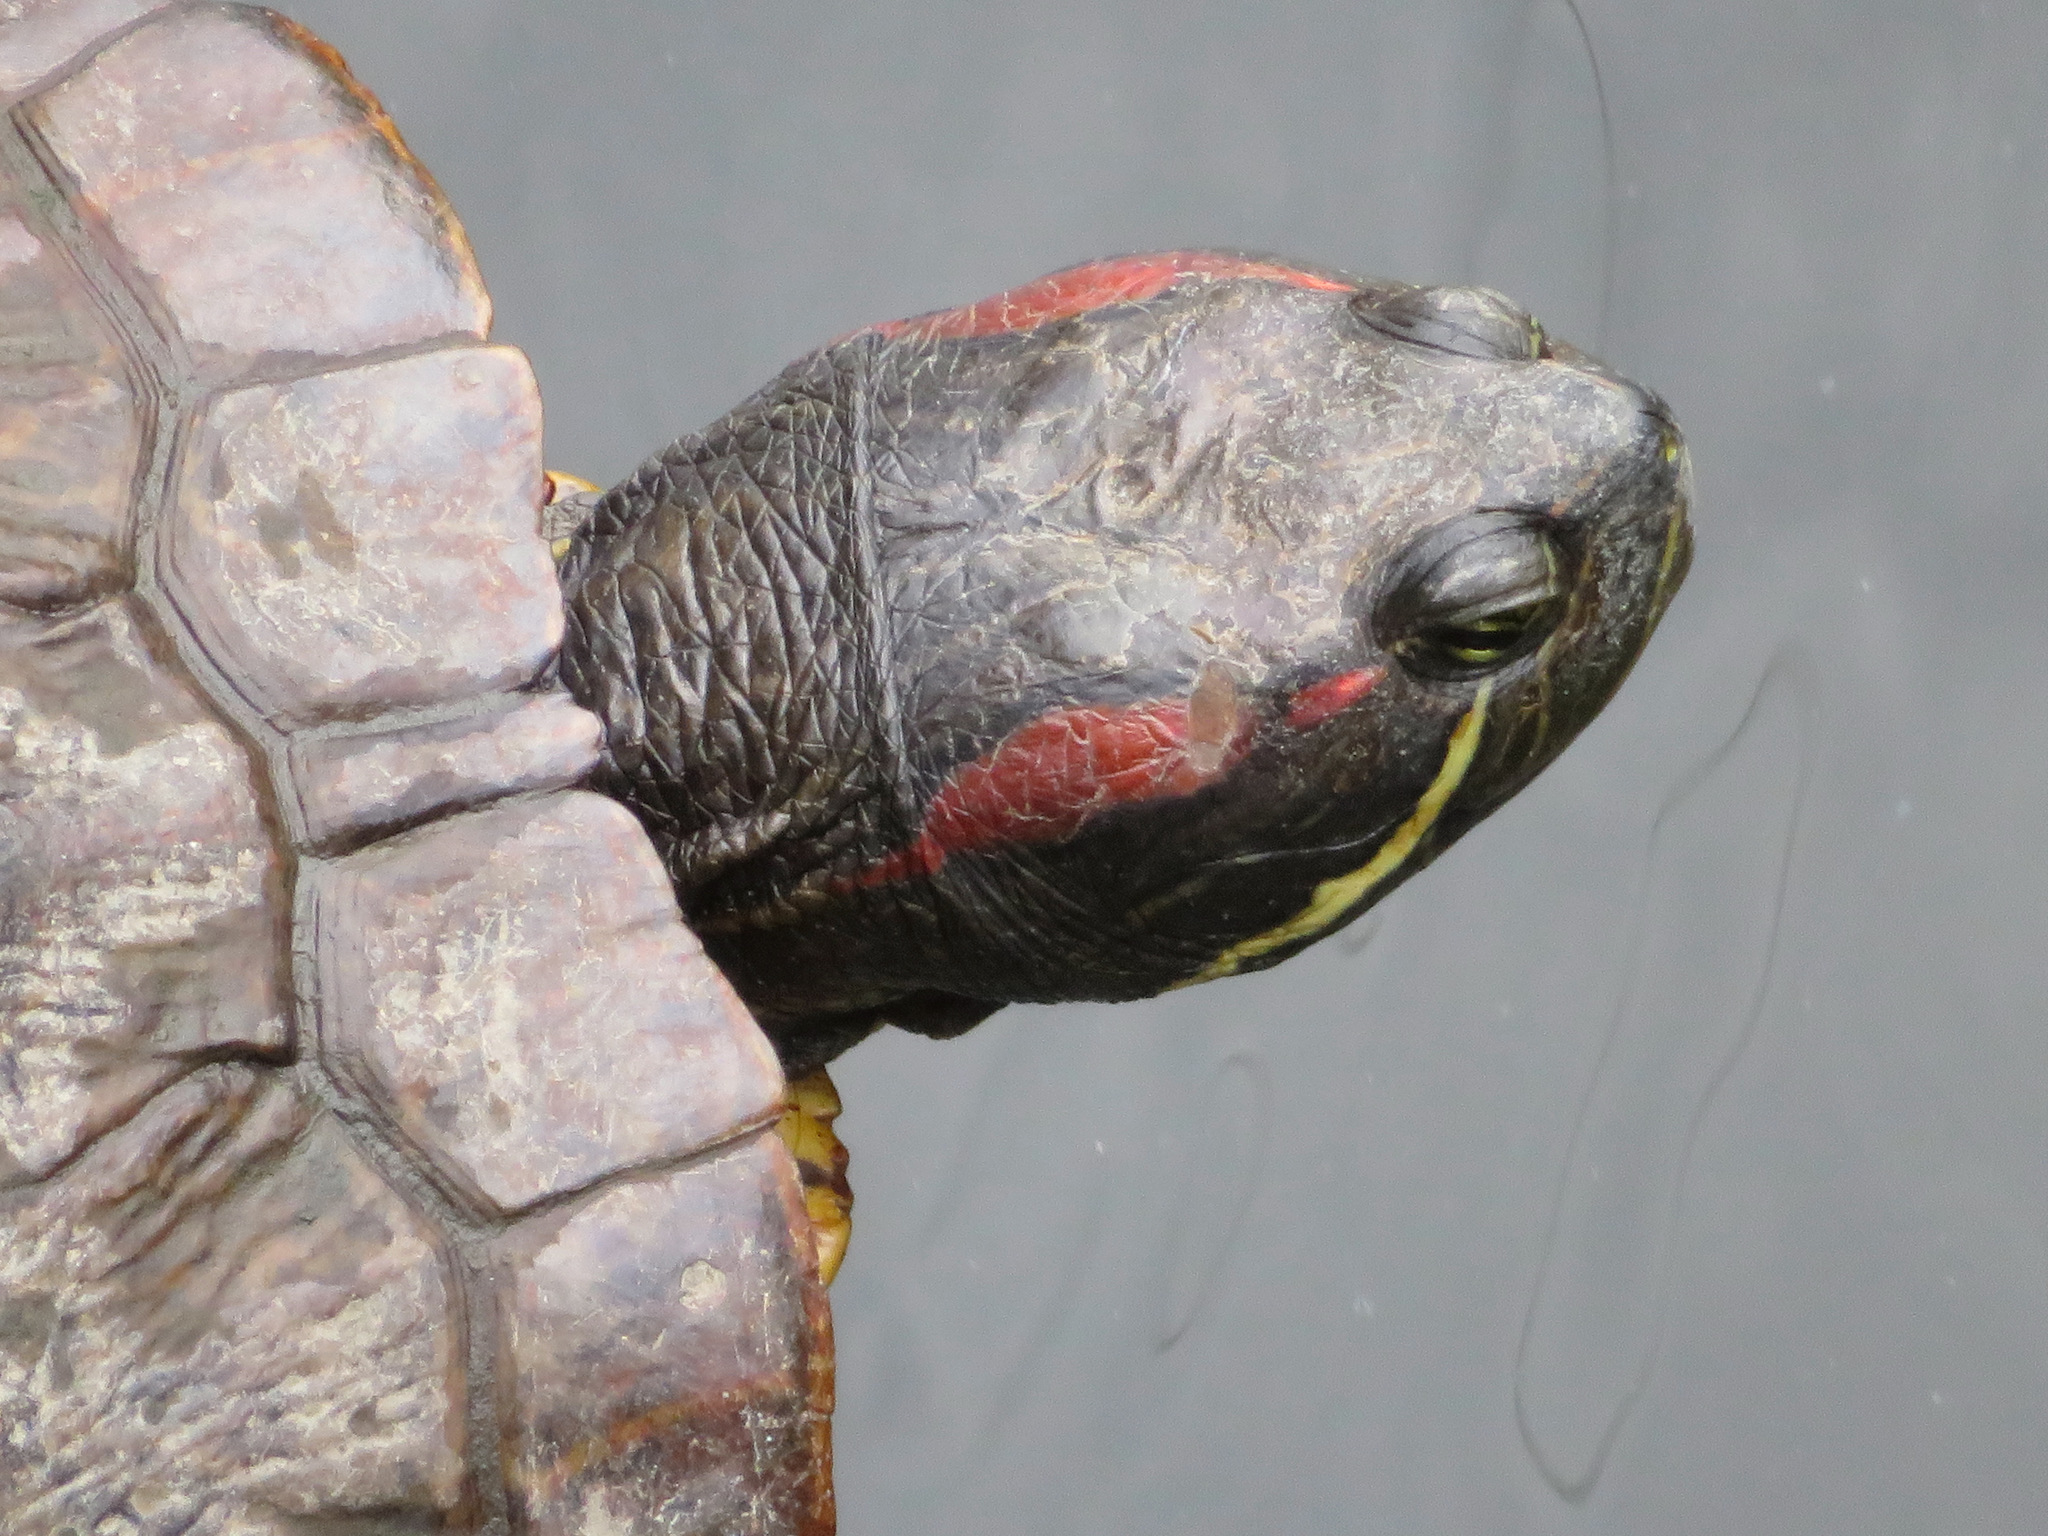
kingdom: Animalia
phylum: Chordata
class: Testudines
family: Emydidae
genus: Trachemys
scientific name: Trachemys scripta
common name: Slider
